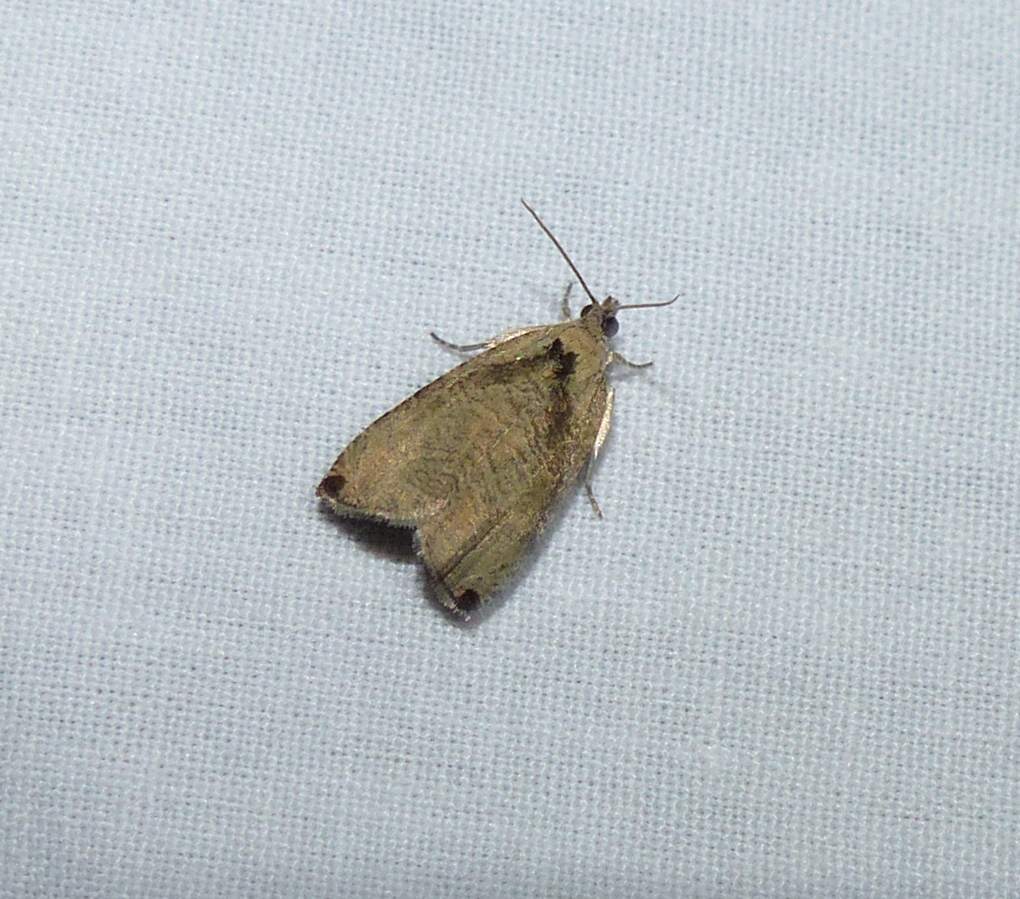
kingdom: Animalia
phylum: Arthropoda
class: Insecta
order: Lepidoptera
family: Tortricidae
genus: Olethreutes
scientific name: Olethreutes exoletum
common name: Wretched olethreutes moth
